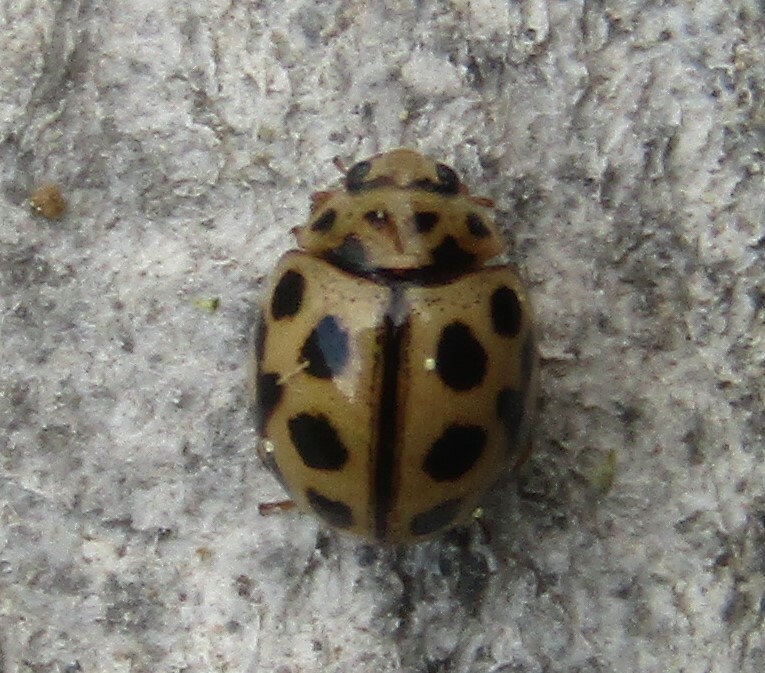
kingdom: Animalia
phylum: Arthropoda
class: Insecta
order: Coleoptera
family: Coccinellidae
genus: Tytthaspis
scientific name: Tytthaspis sedecimpunctata
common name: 16-spot ladybird
